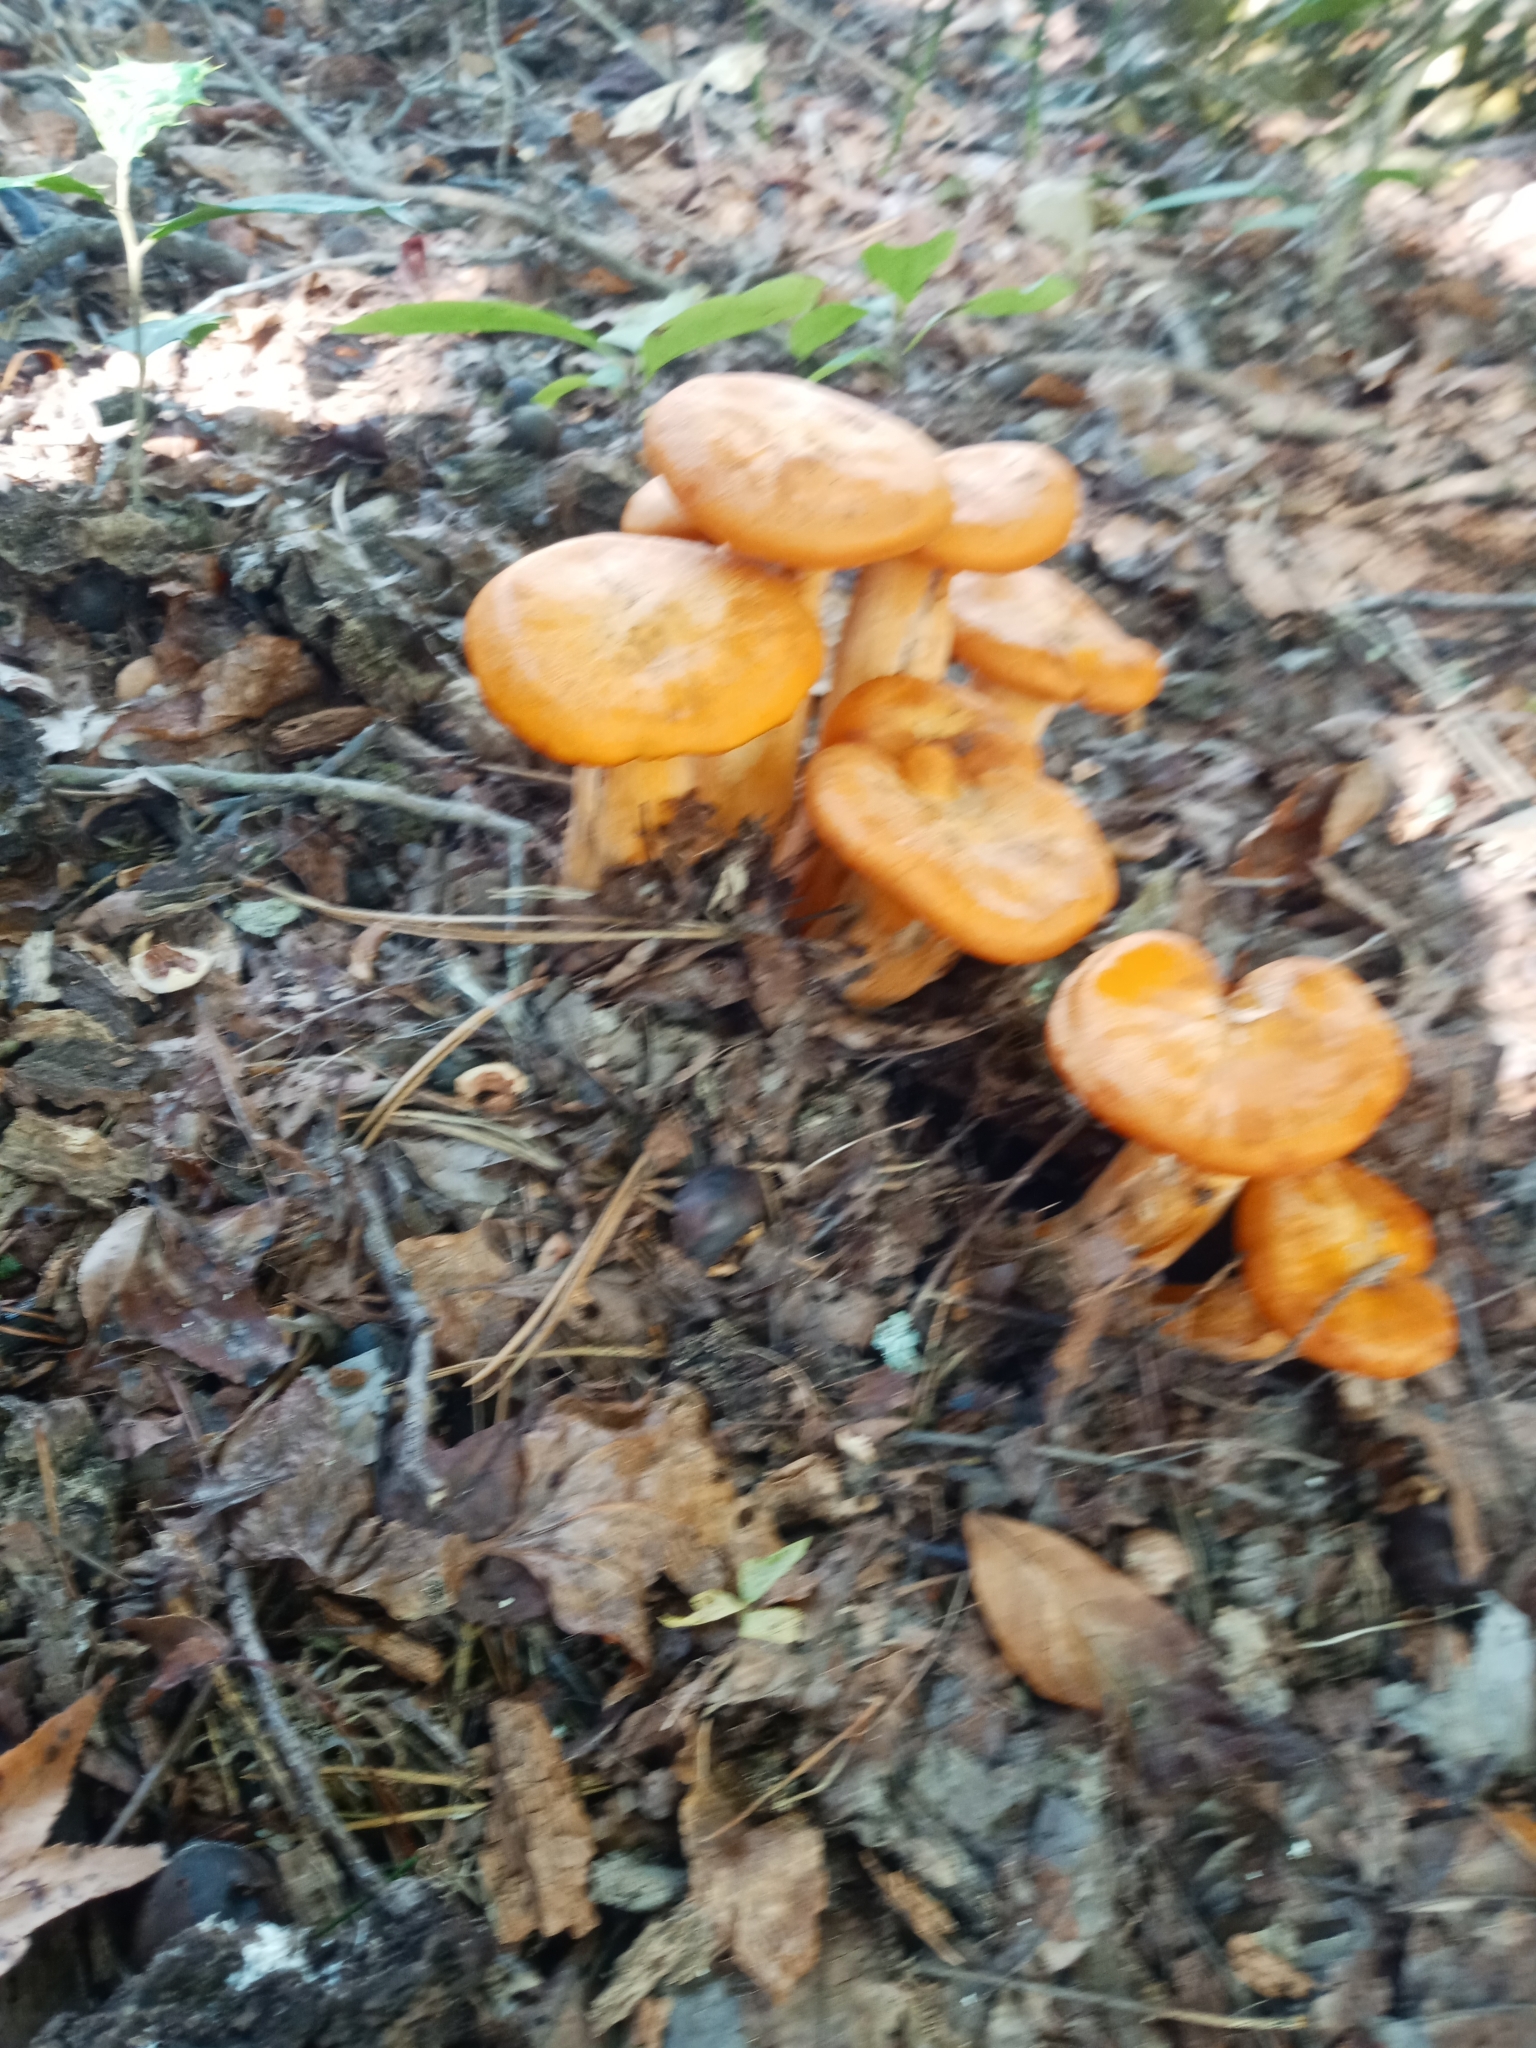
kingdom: Fungi
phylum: Basidiomycota
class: Agaricomycetes
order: Agaricales
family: Omphalotaceae
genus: Omphalotus
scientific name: Omphalotus illudens
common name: Jack o lantern
